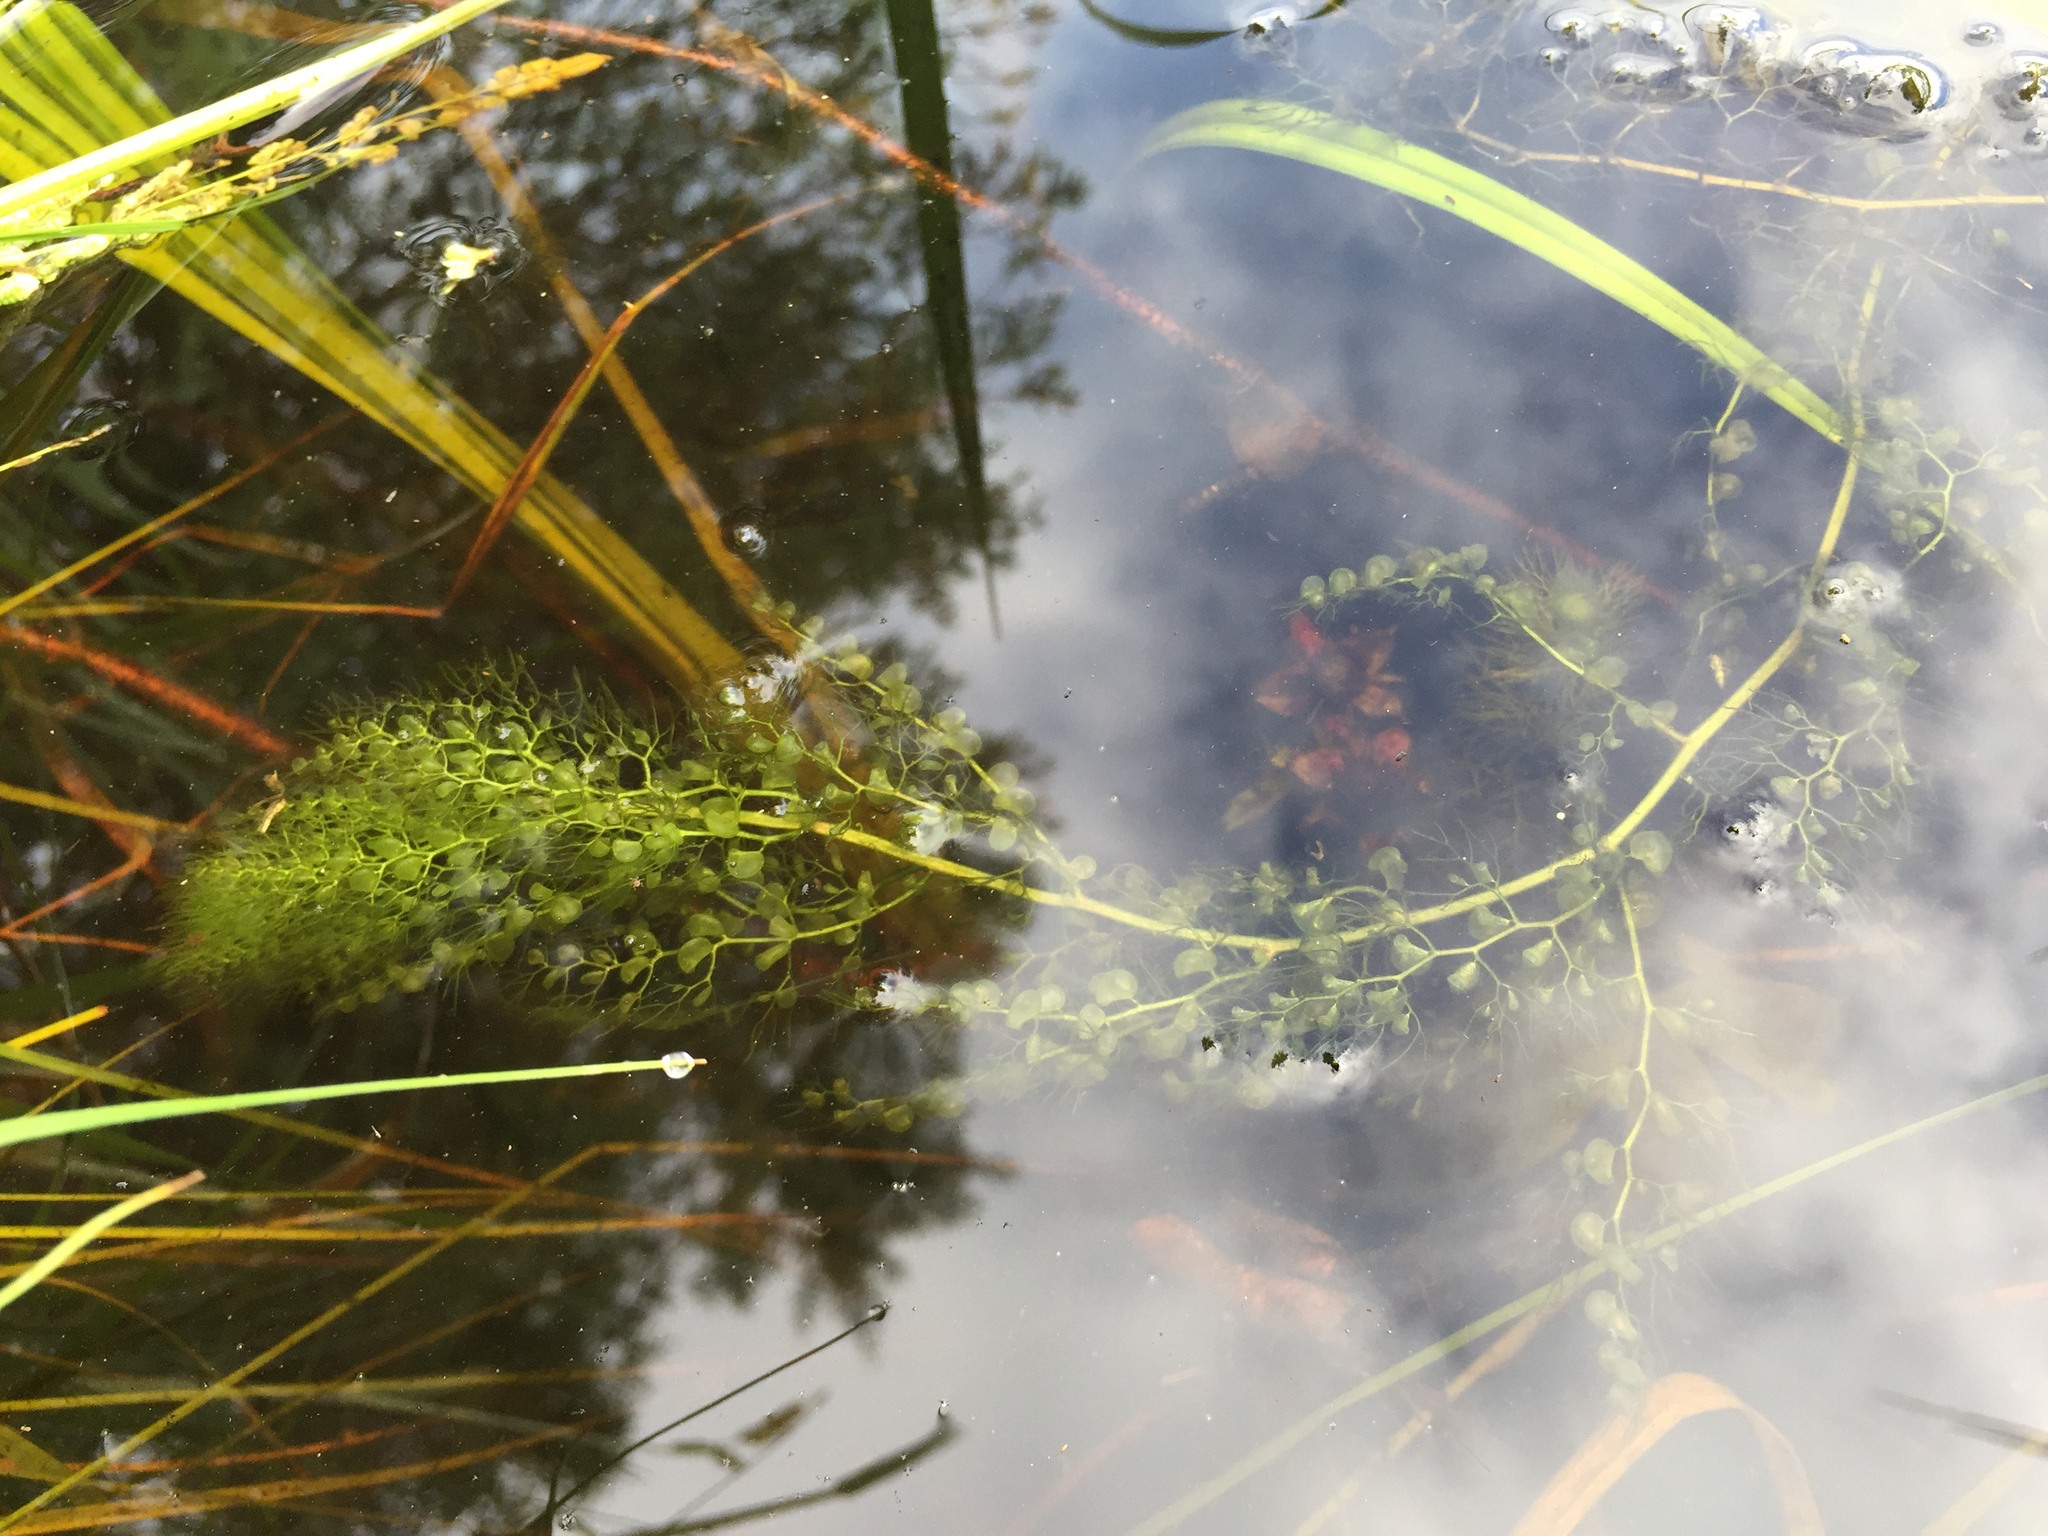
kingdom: Plantae
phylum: Tracheophyta
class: Magnoliopsida
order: Lamiales
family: Lentibulariaceae
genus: Utricularia
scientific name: Utricularia macrorhiza
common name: Common bladderwort
